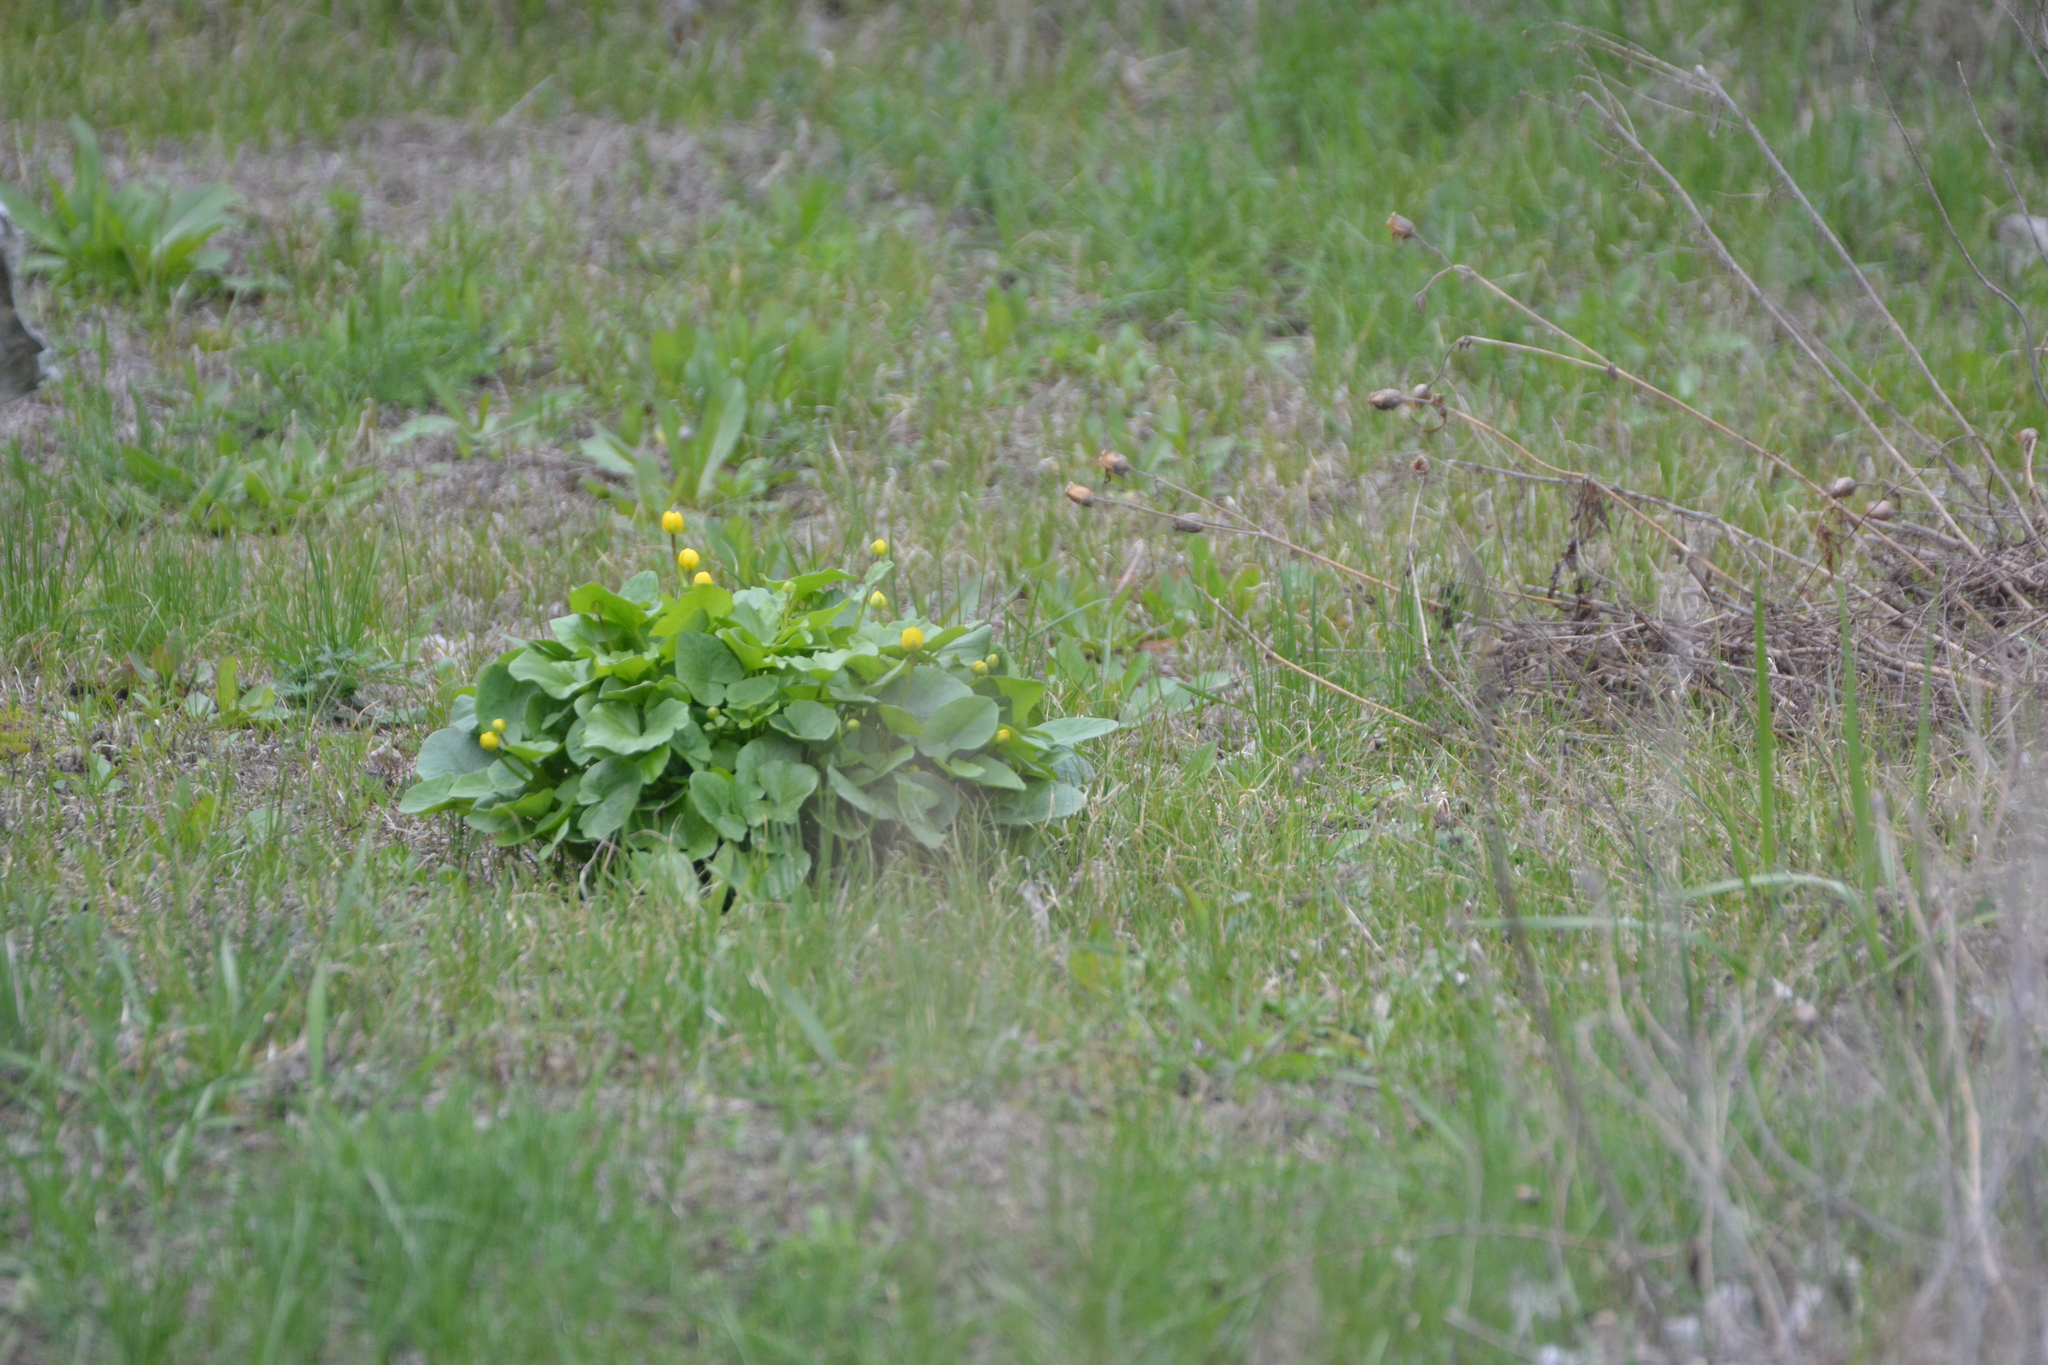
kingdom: Plantae
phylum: Tracheophyta
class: Magnoliopsida
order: Ranunculales
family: Ranunculaceae
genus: Ficaria
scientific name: Ficaria verna
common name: Lesser celandine
